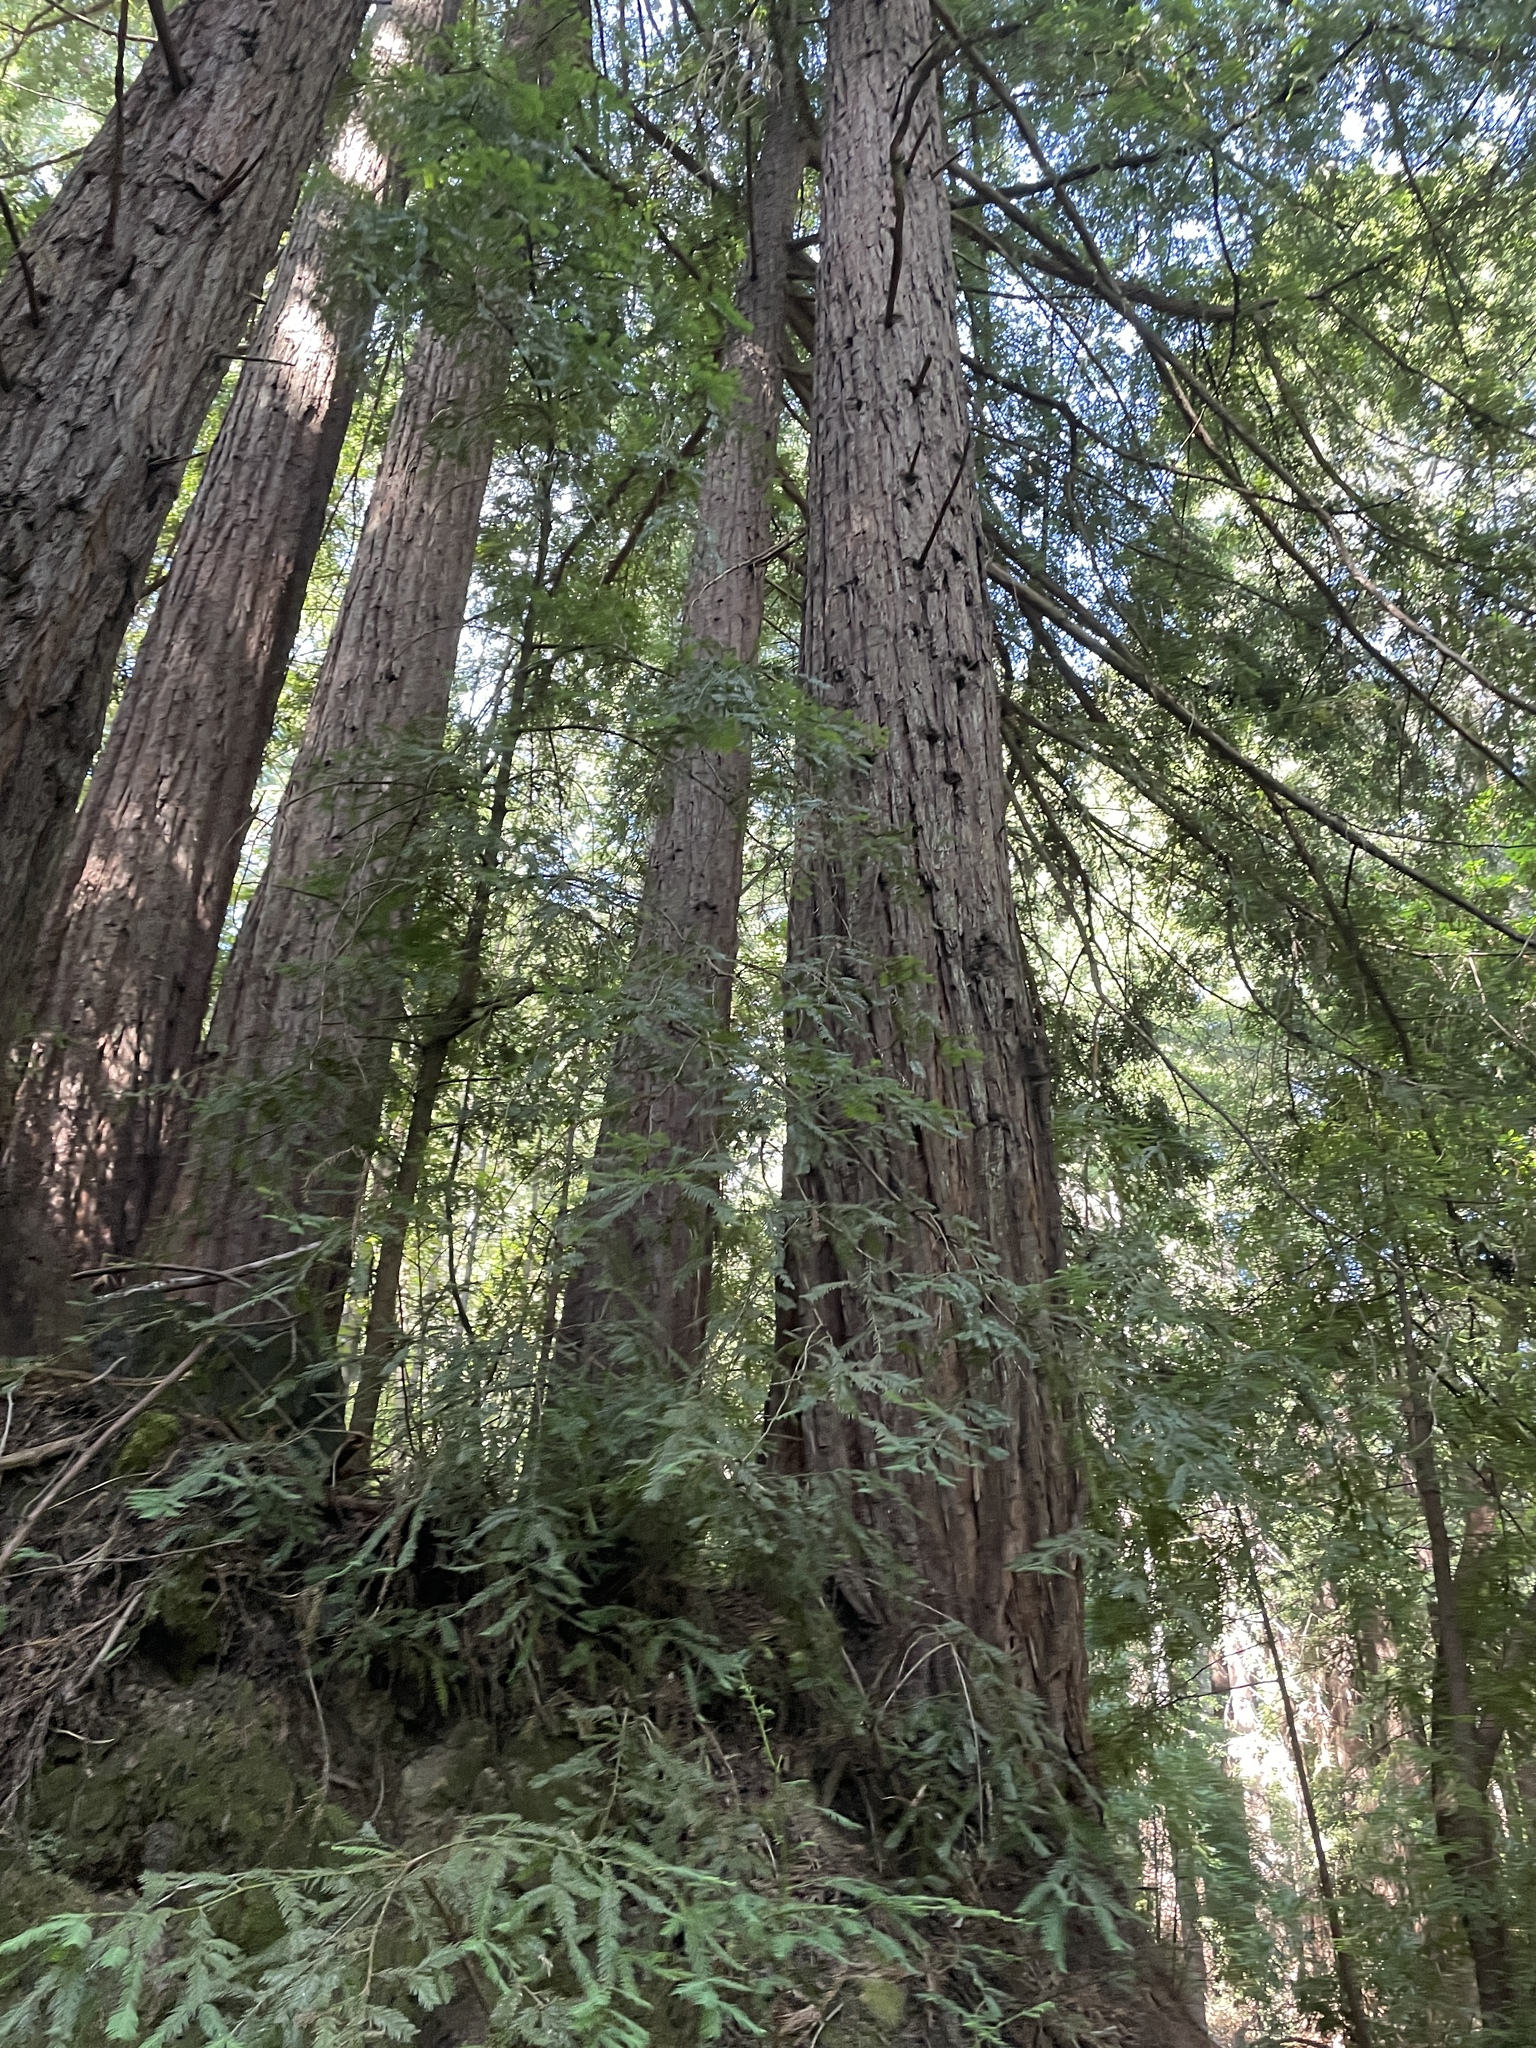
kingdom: Plantae
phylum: Tracheophyta
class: Pinopsida
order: Pinales
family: Cupressaceae
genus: Sequoia
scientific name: Sequoia sempervirens
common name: Coast redwood
